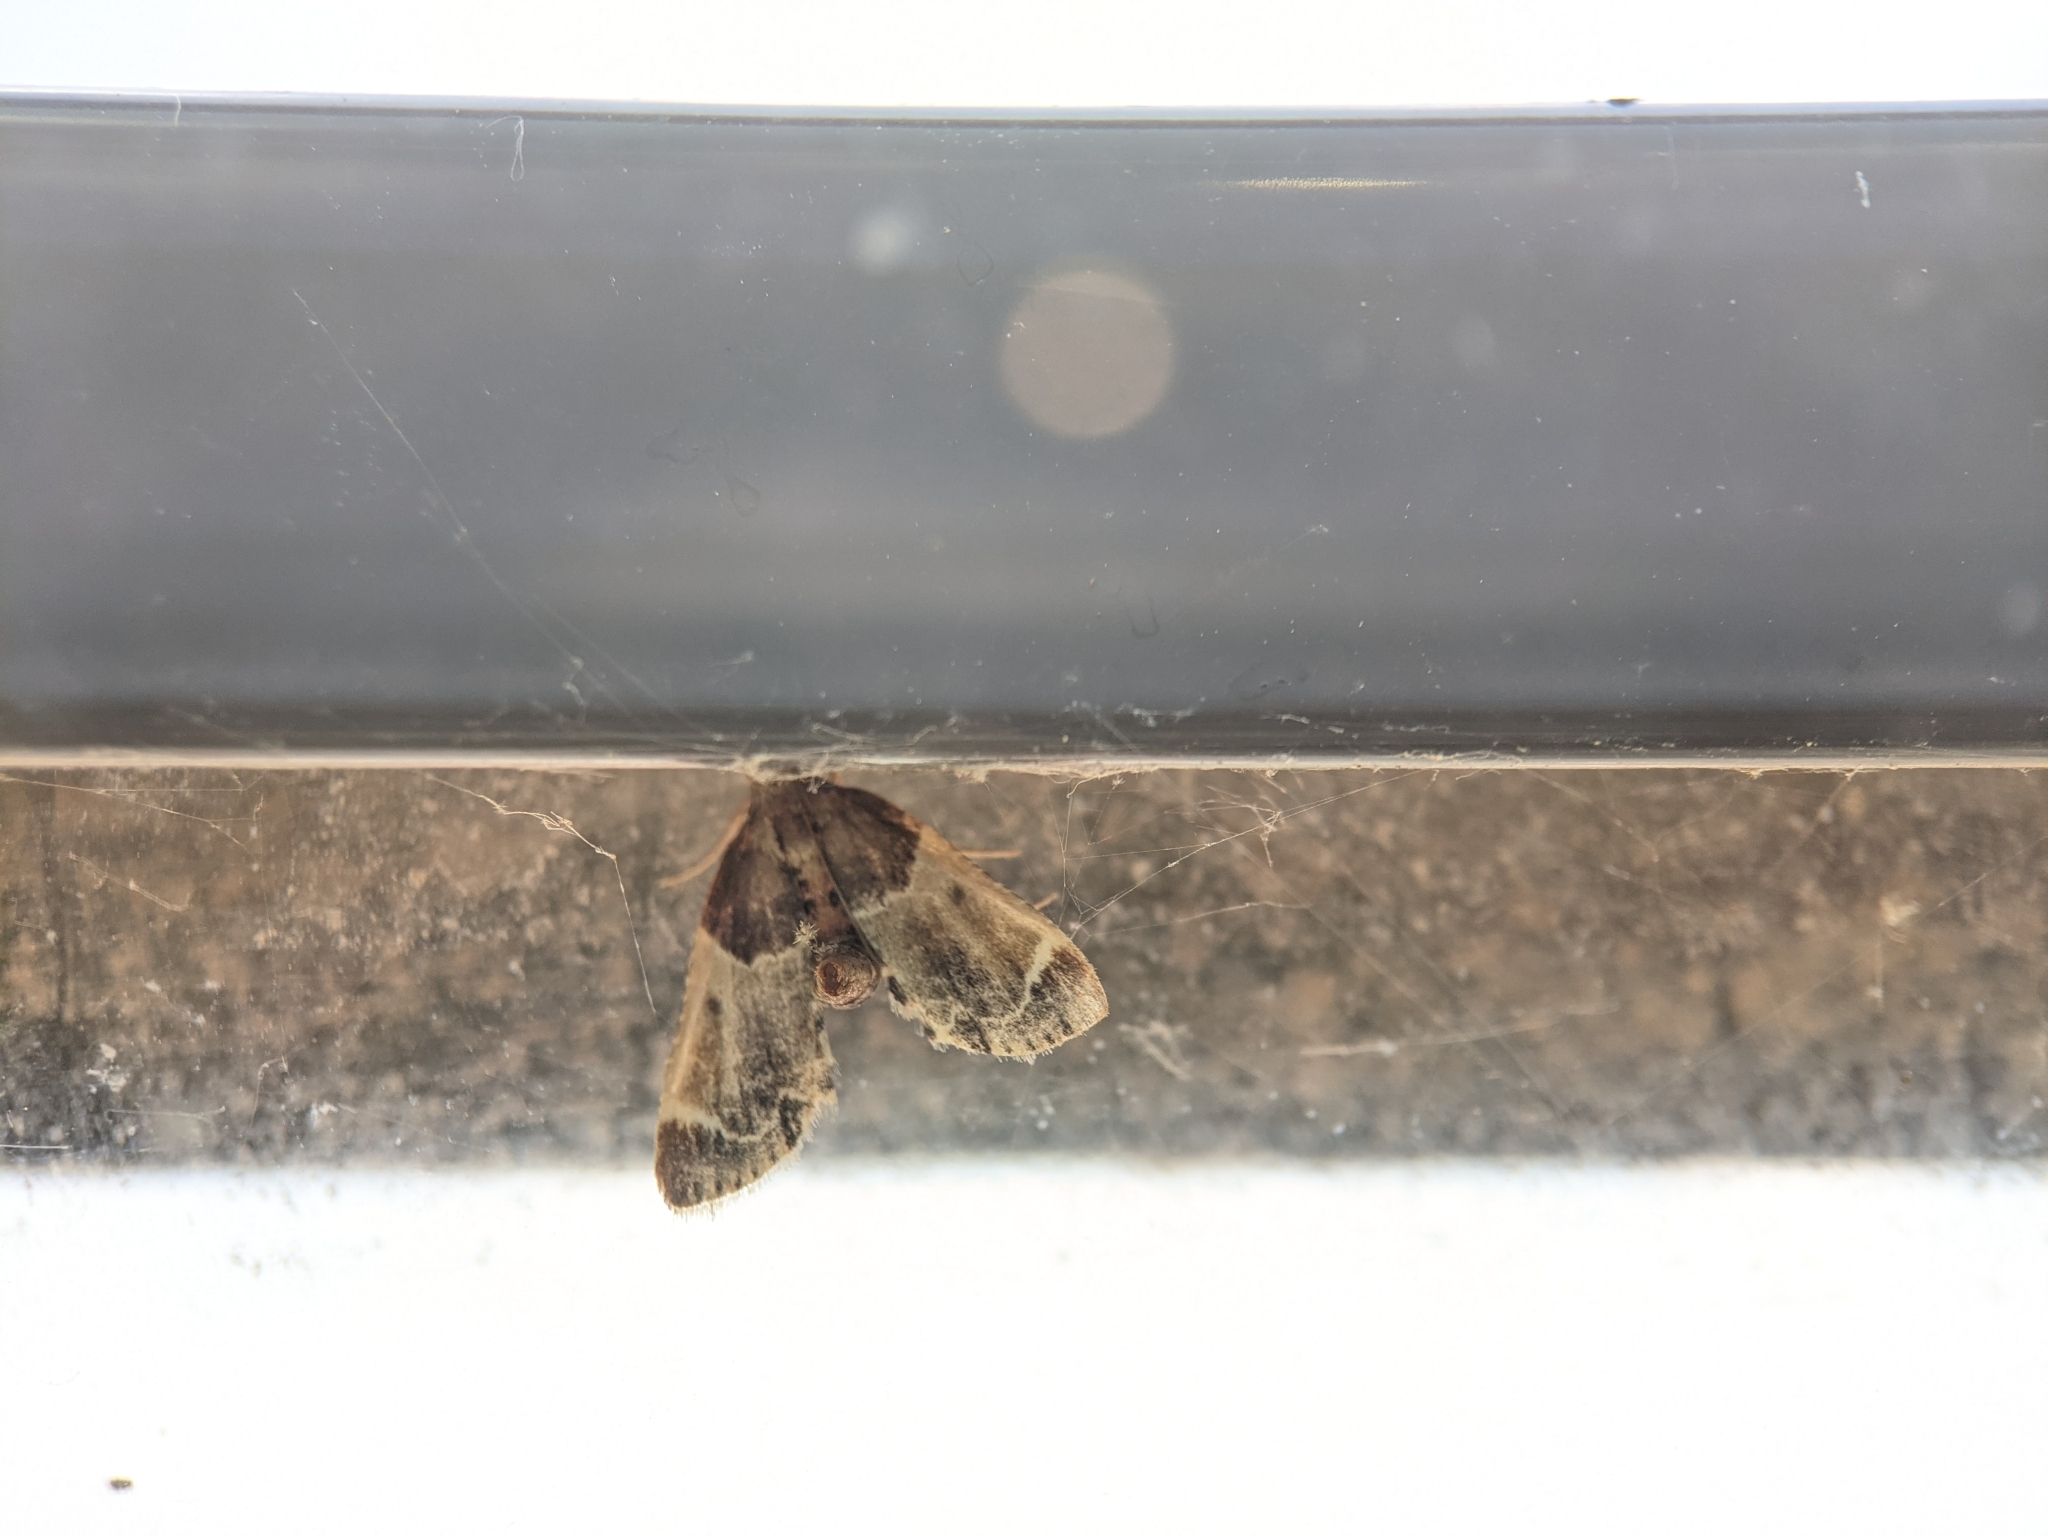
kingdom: Animalia
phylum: Arthropoda
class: Insecta
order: Lepidoptera
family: Pyralidae
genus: Pyralis
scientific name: Pyralis farinalis
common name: Meal moth
